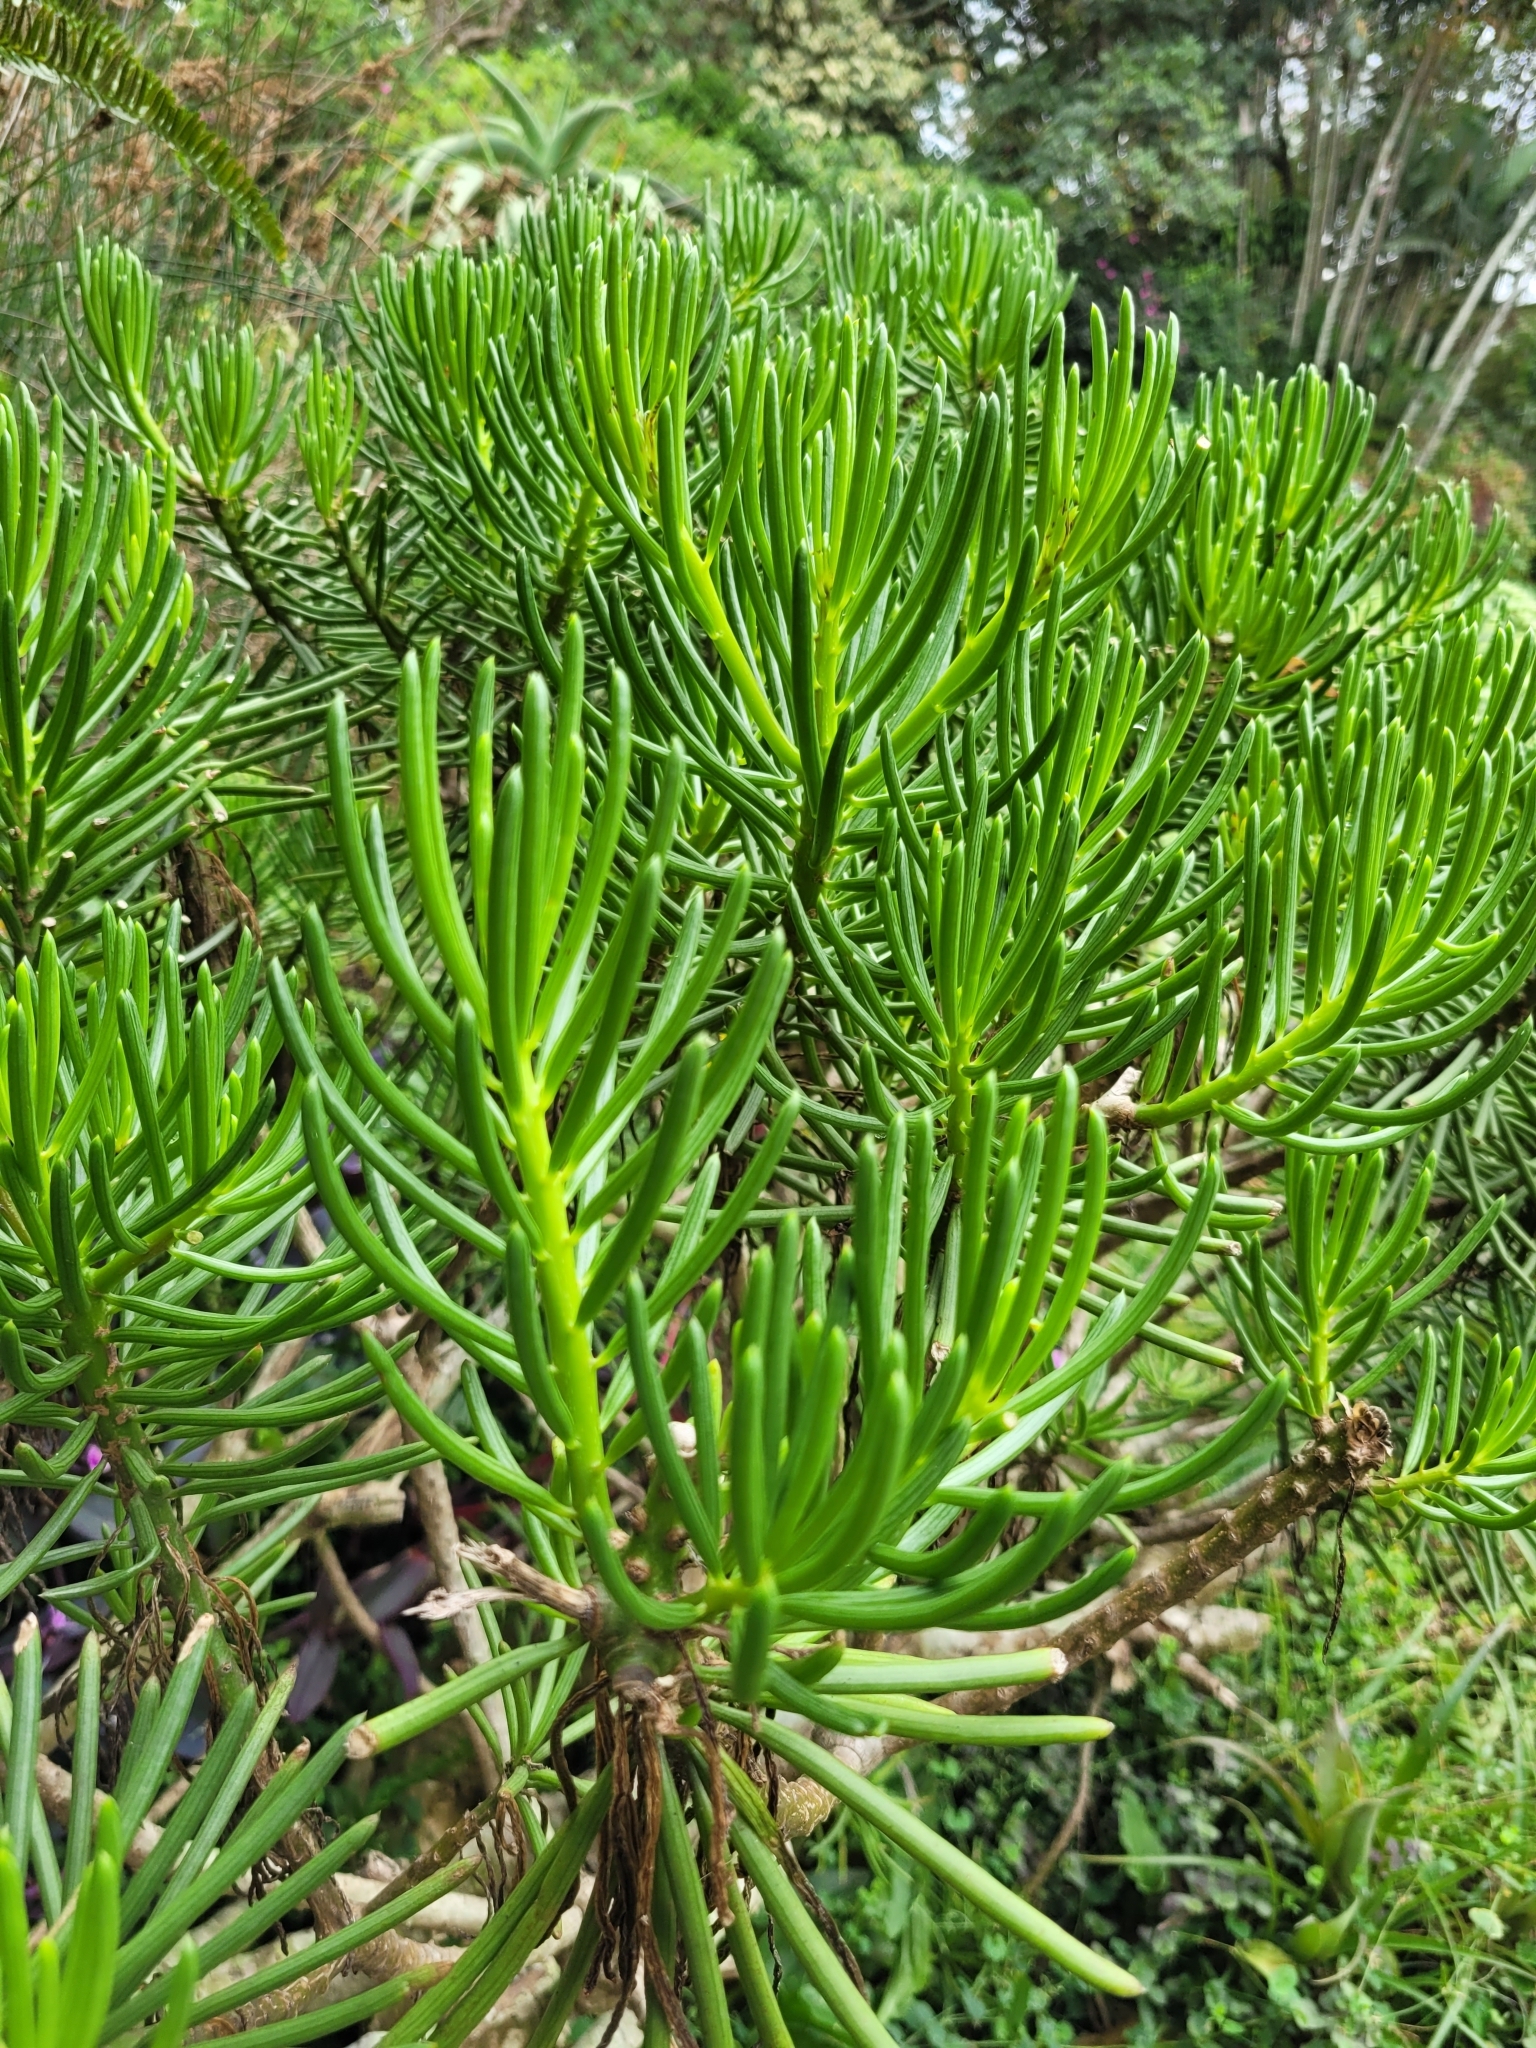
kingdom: Plantae
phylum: Tracheophyta
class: Magnoliopsida
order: Asterales
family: Asteraceae
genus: Kleinia
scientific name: Kleinia barbertonica
